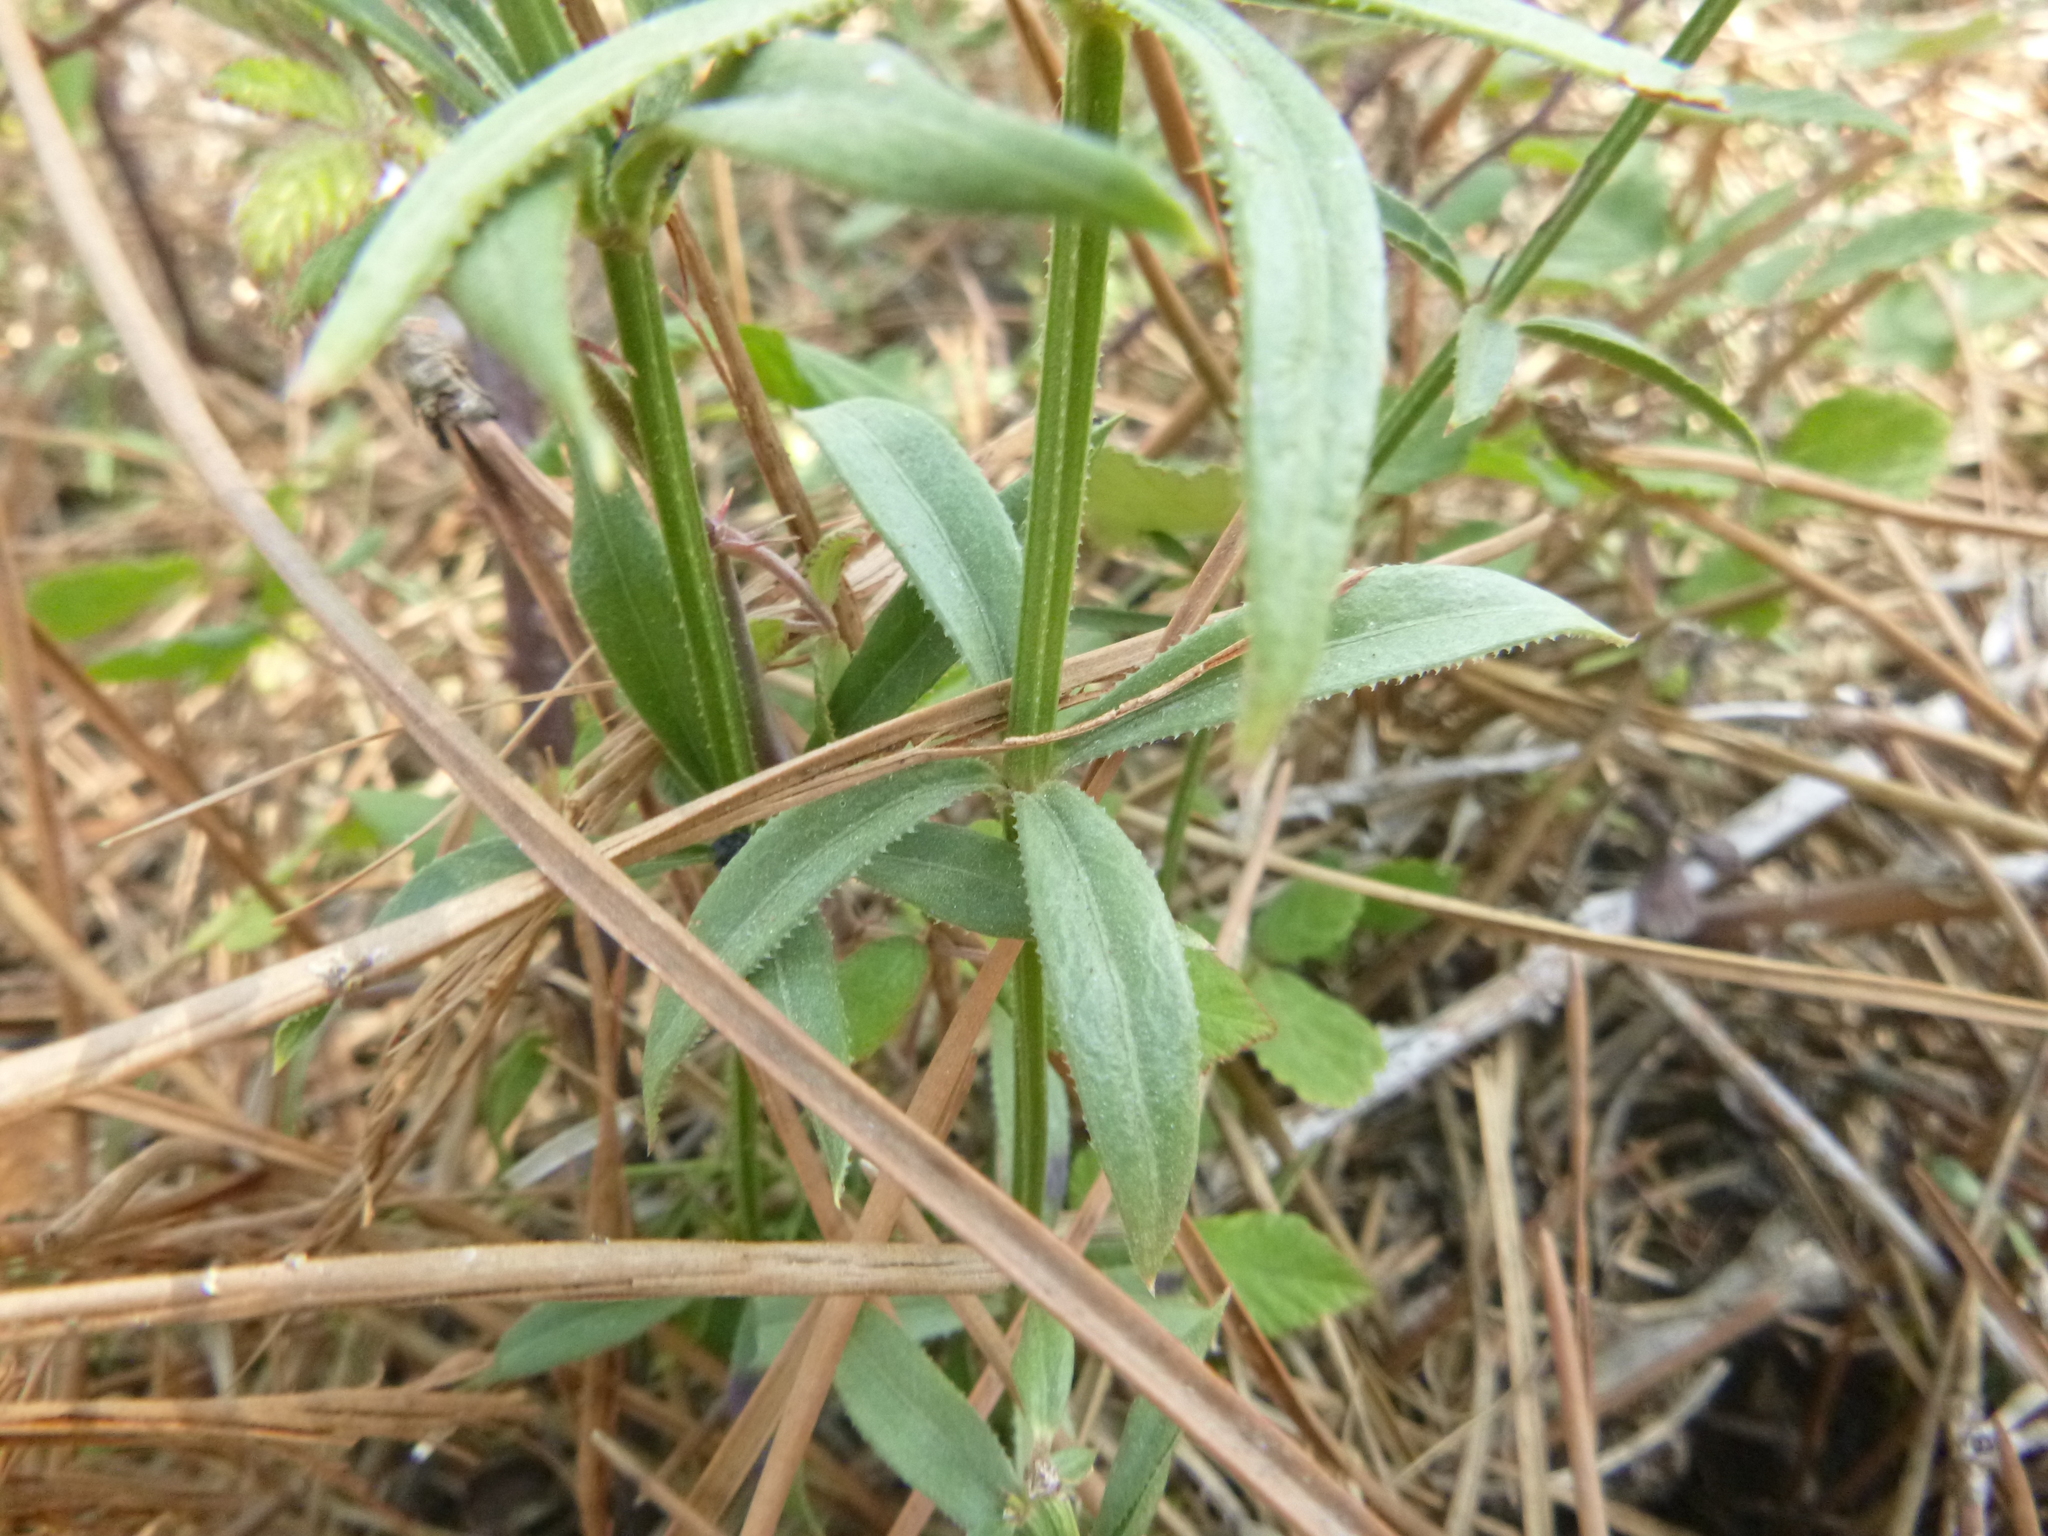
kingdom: Plantae
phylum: Tracheophyta
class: Magnoliopsida
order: Gentianales
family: Rubiaceae
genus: Rubia
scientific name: Rubia peregrina
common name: Wild madder
